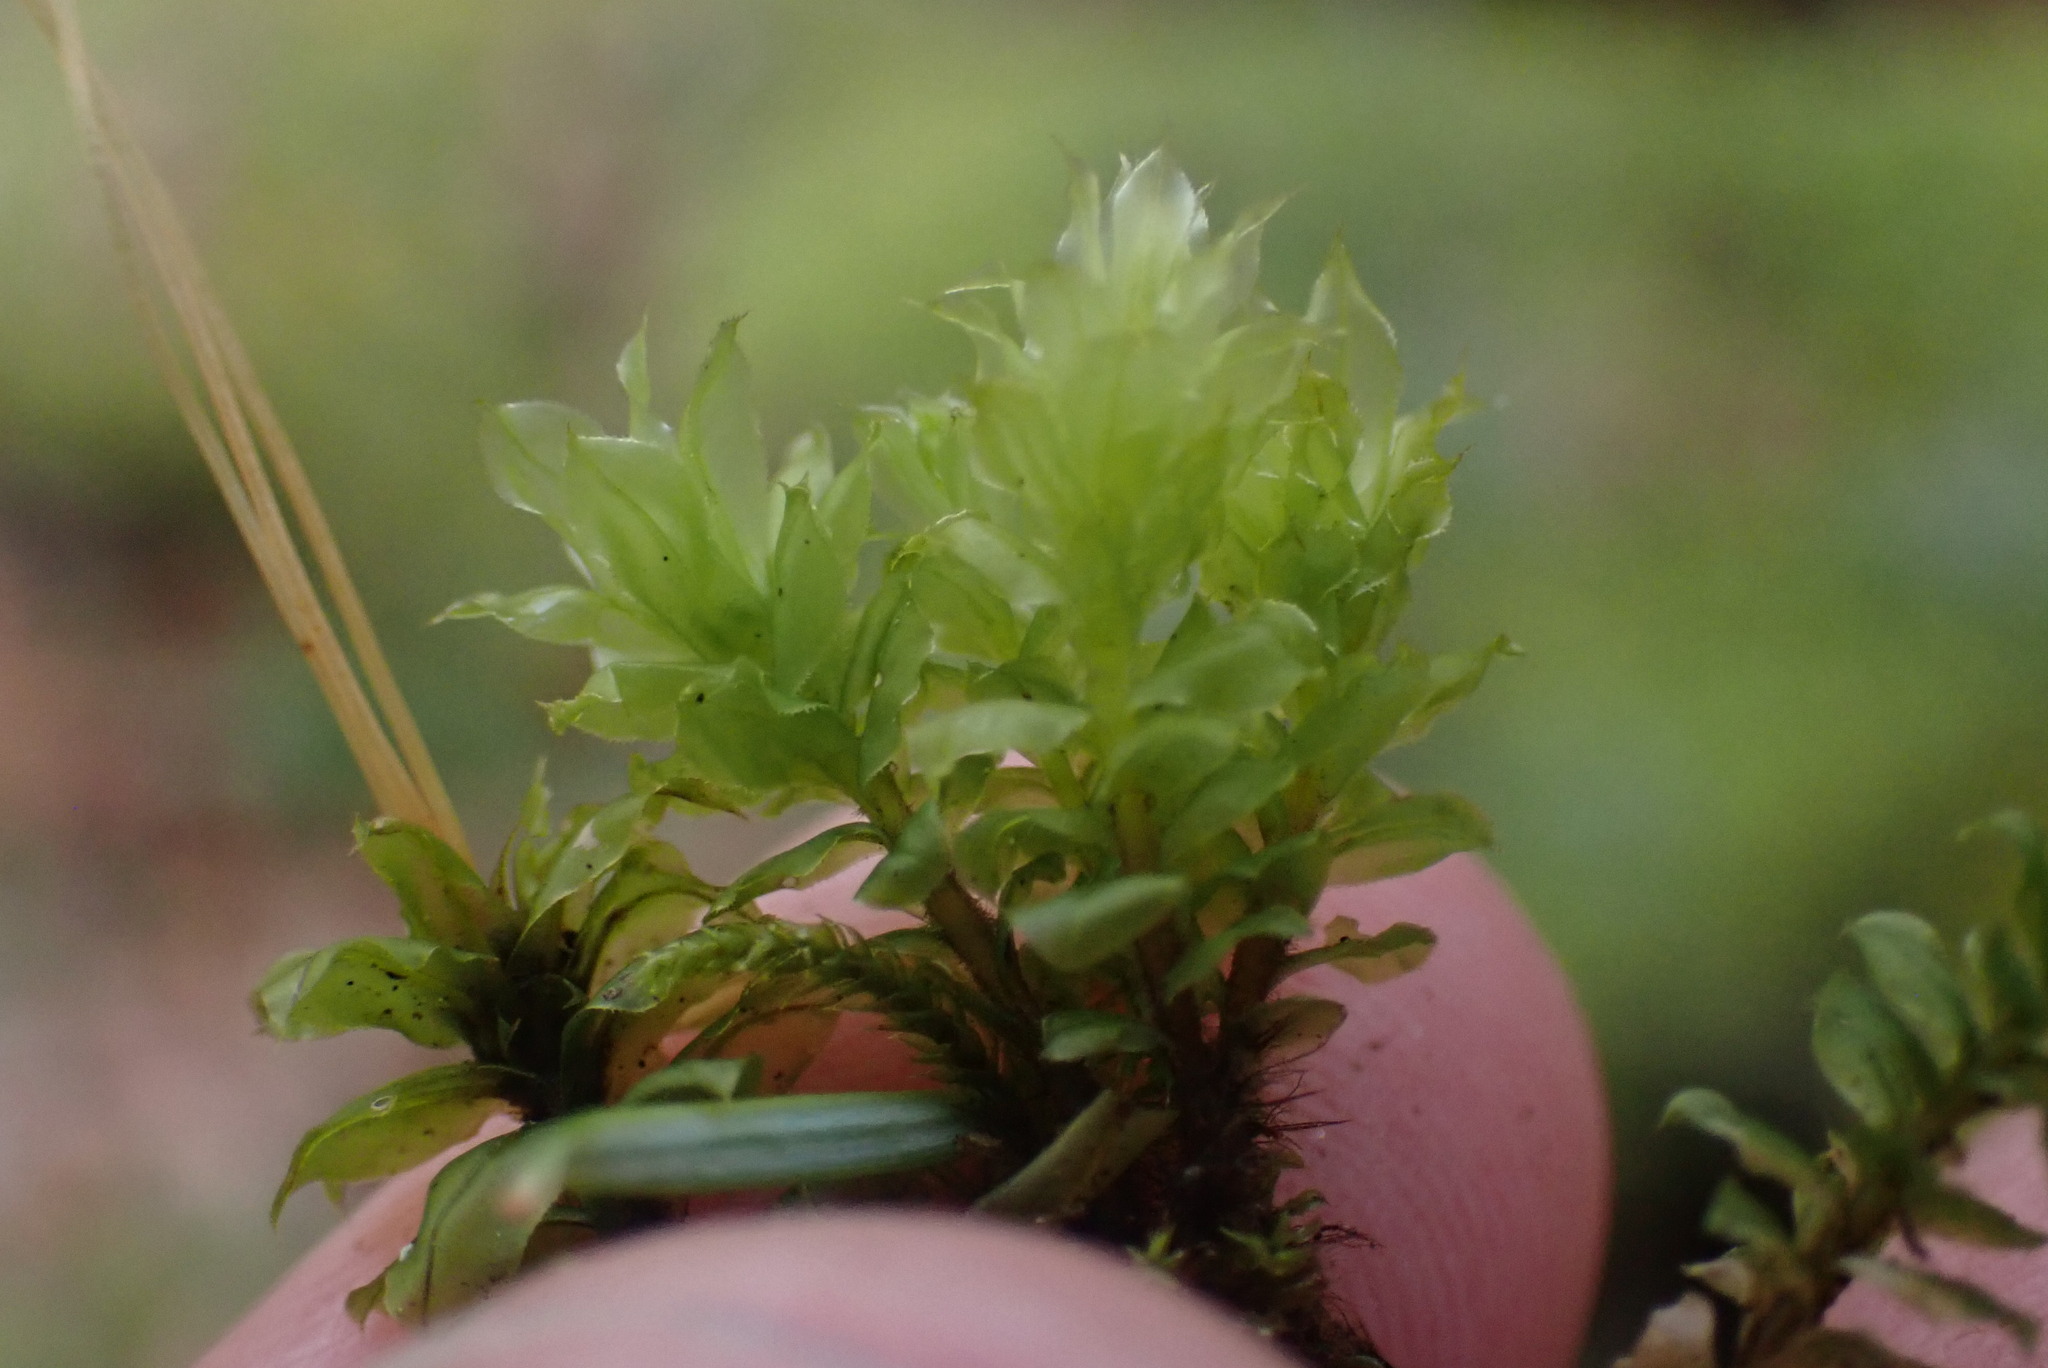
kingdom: Plantae
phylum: Bryophyta
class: Bryopsida
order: Bryales
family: Mniaceae
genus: Plagiomnium
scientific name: Plagiomnium venustum
